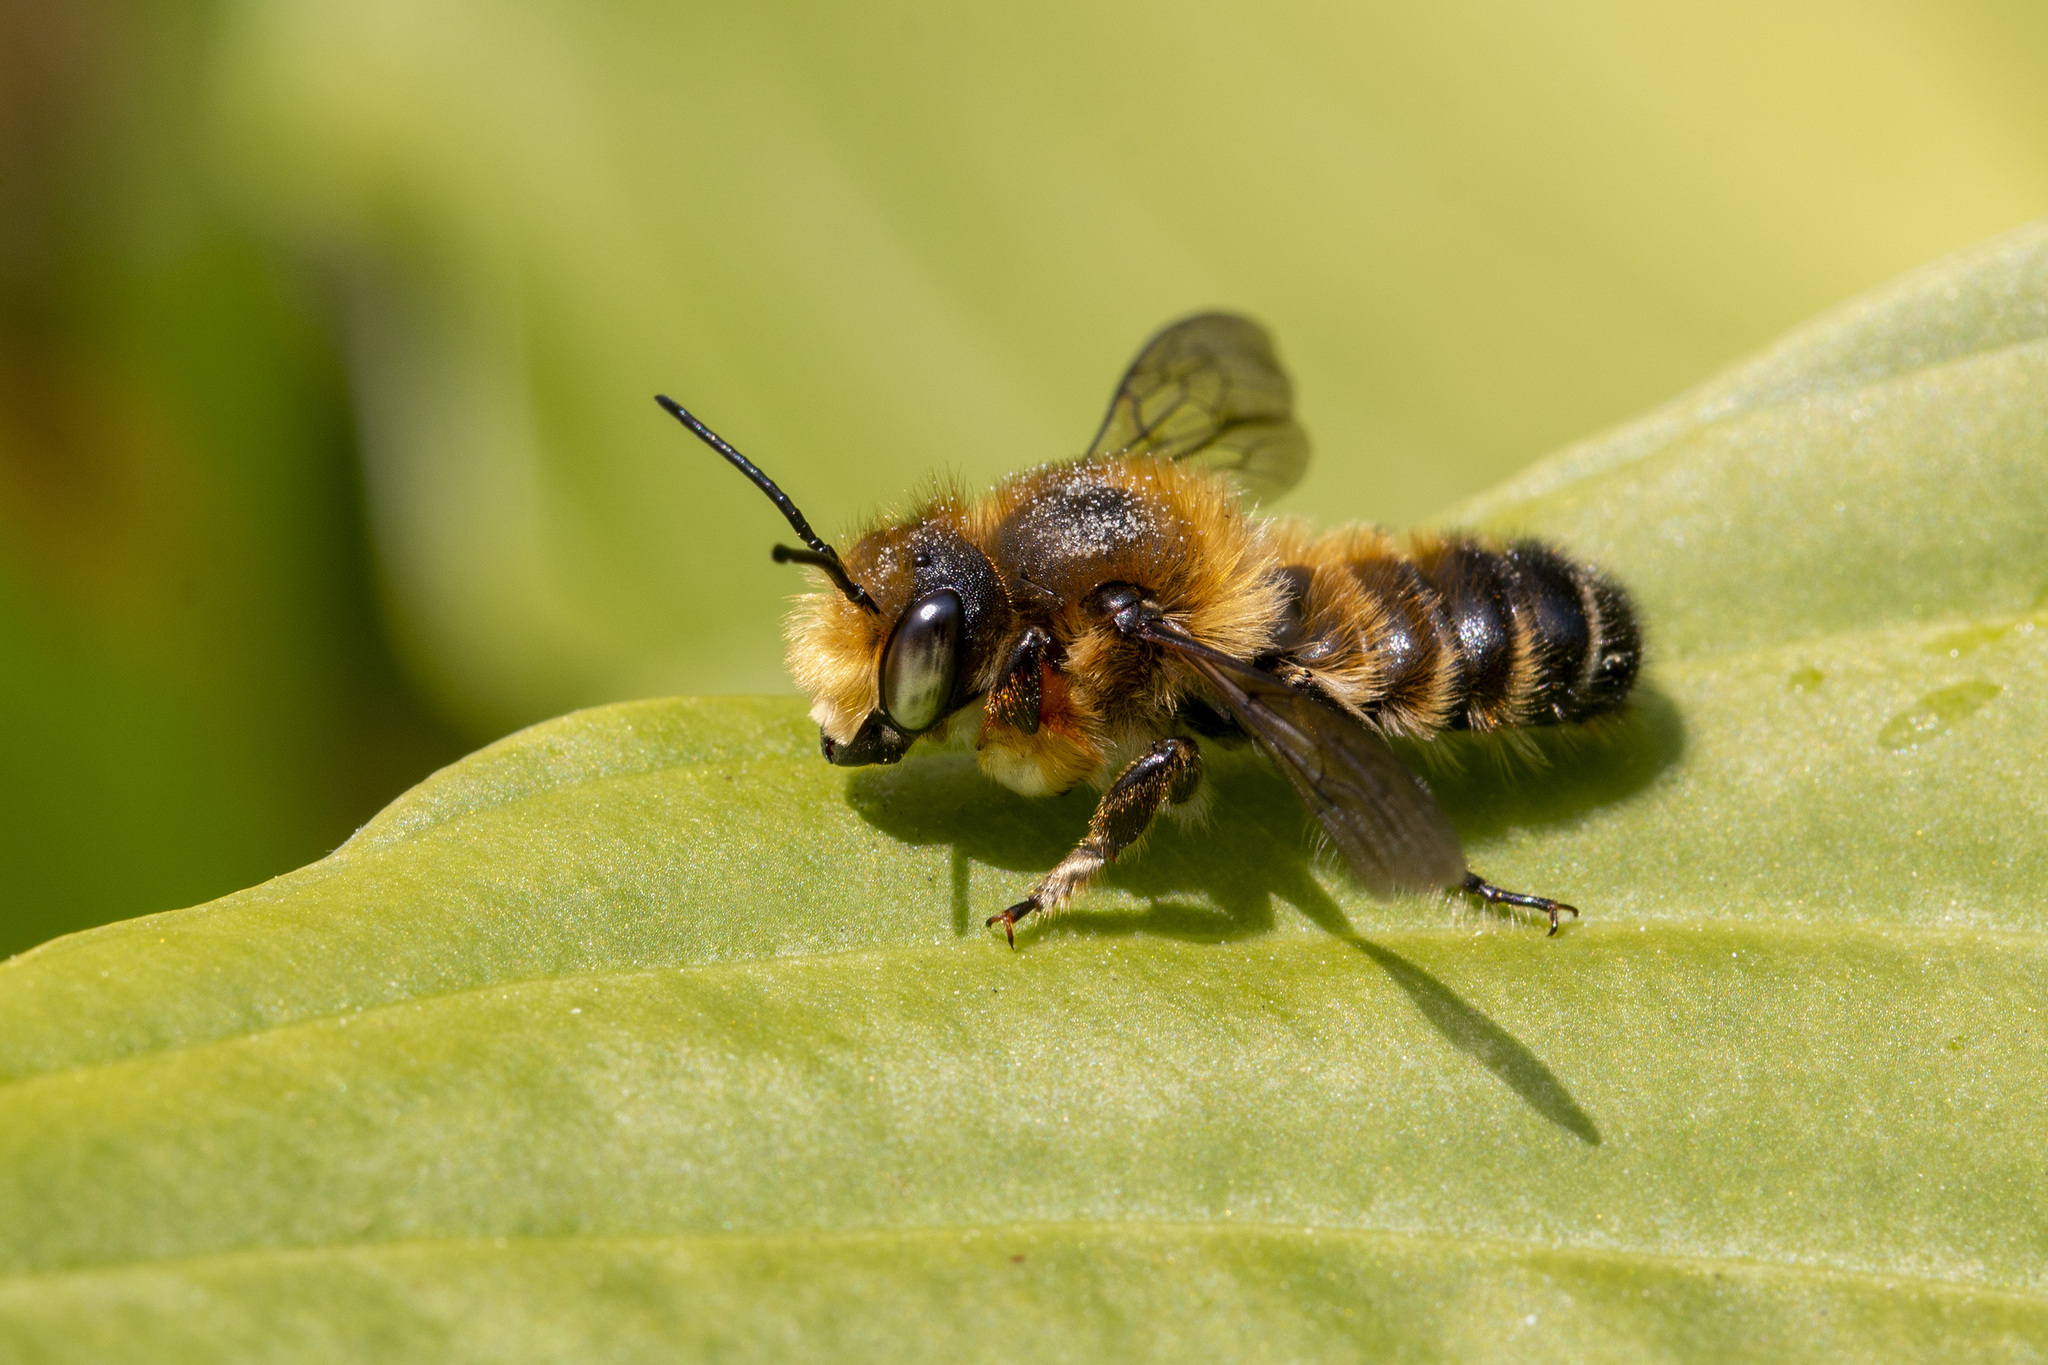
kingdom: Animalia
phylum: Arthropoda
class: Insecta
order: Hymenoptera
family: Megachilidae
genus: Megachile
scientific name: Megachile willughbiella
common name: Willughby's leafcutter bee
